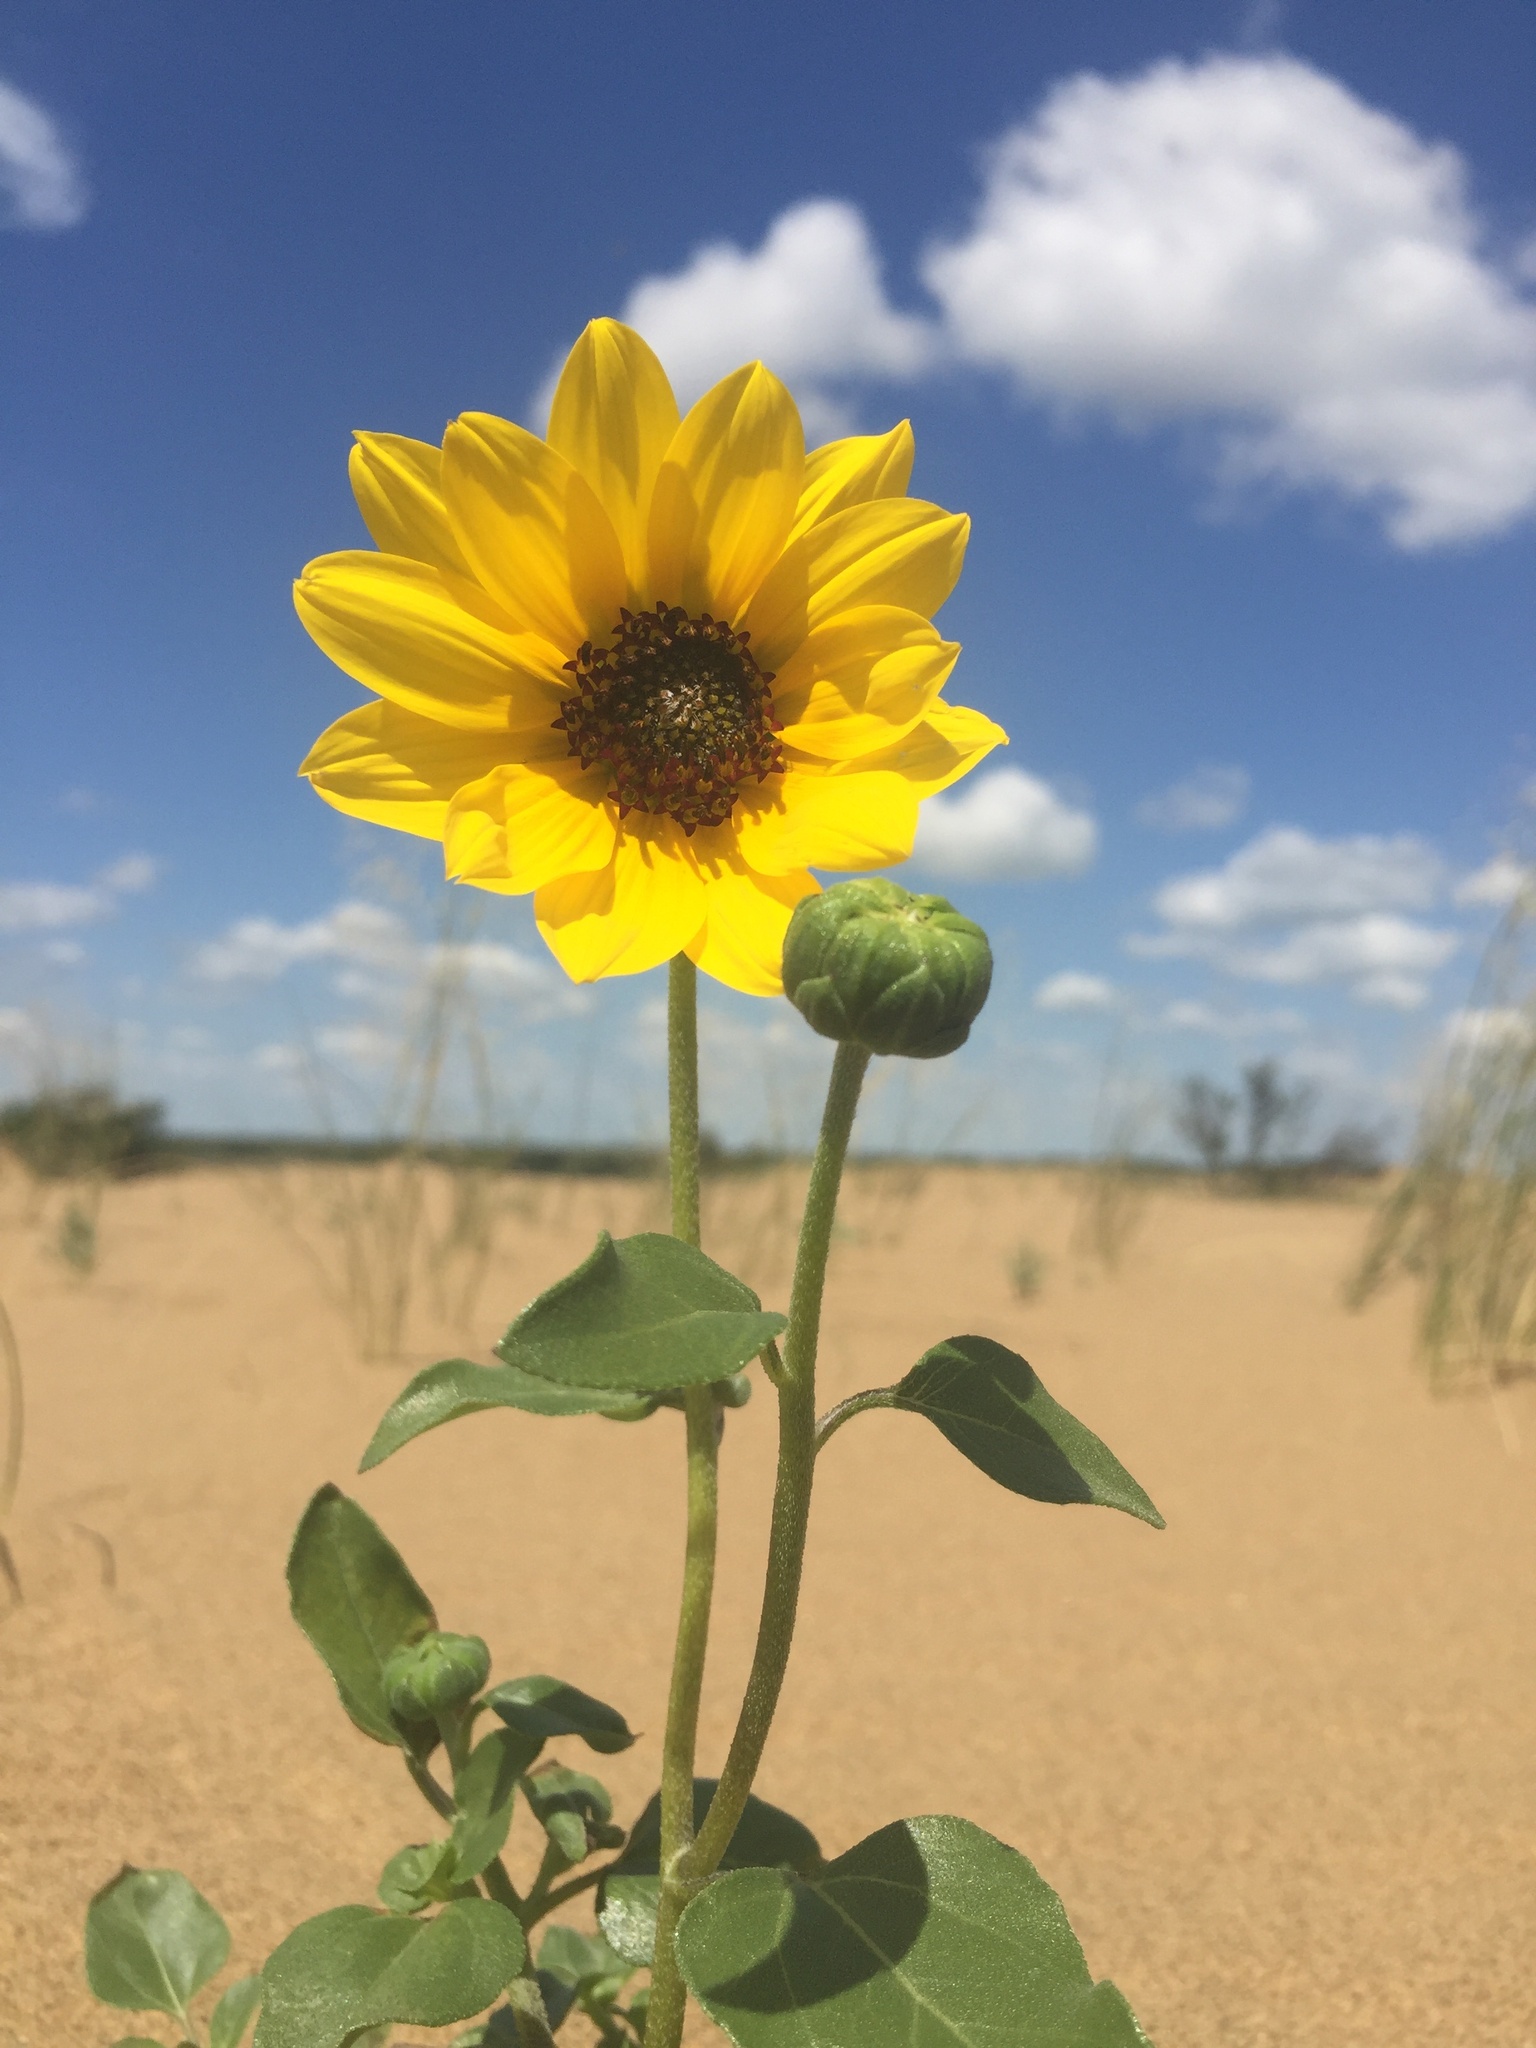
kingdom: Plantae
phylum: Tracheophyta
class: Magnoliopsida
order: Asterales
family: Asteraceae
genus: Helianthus
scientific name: Helianthus petiolaris
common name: Lesser sunflower
